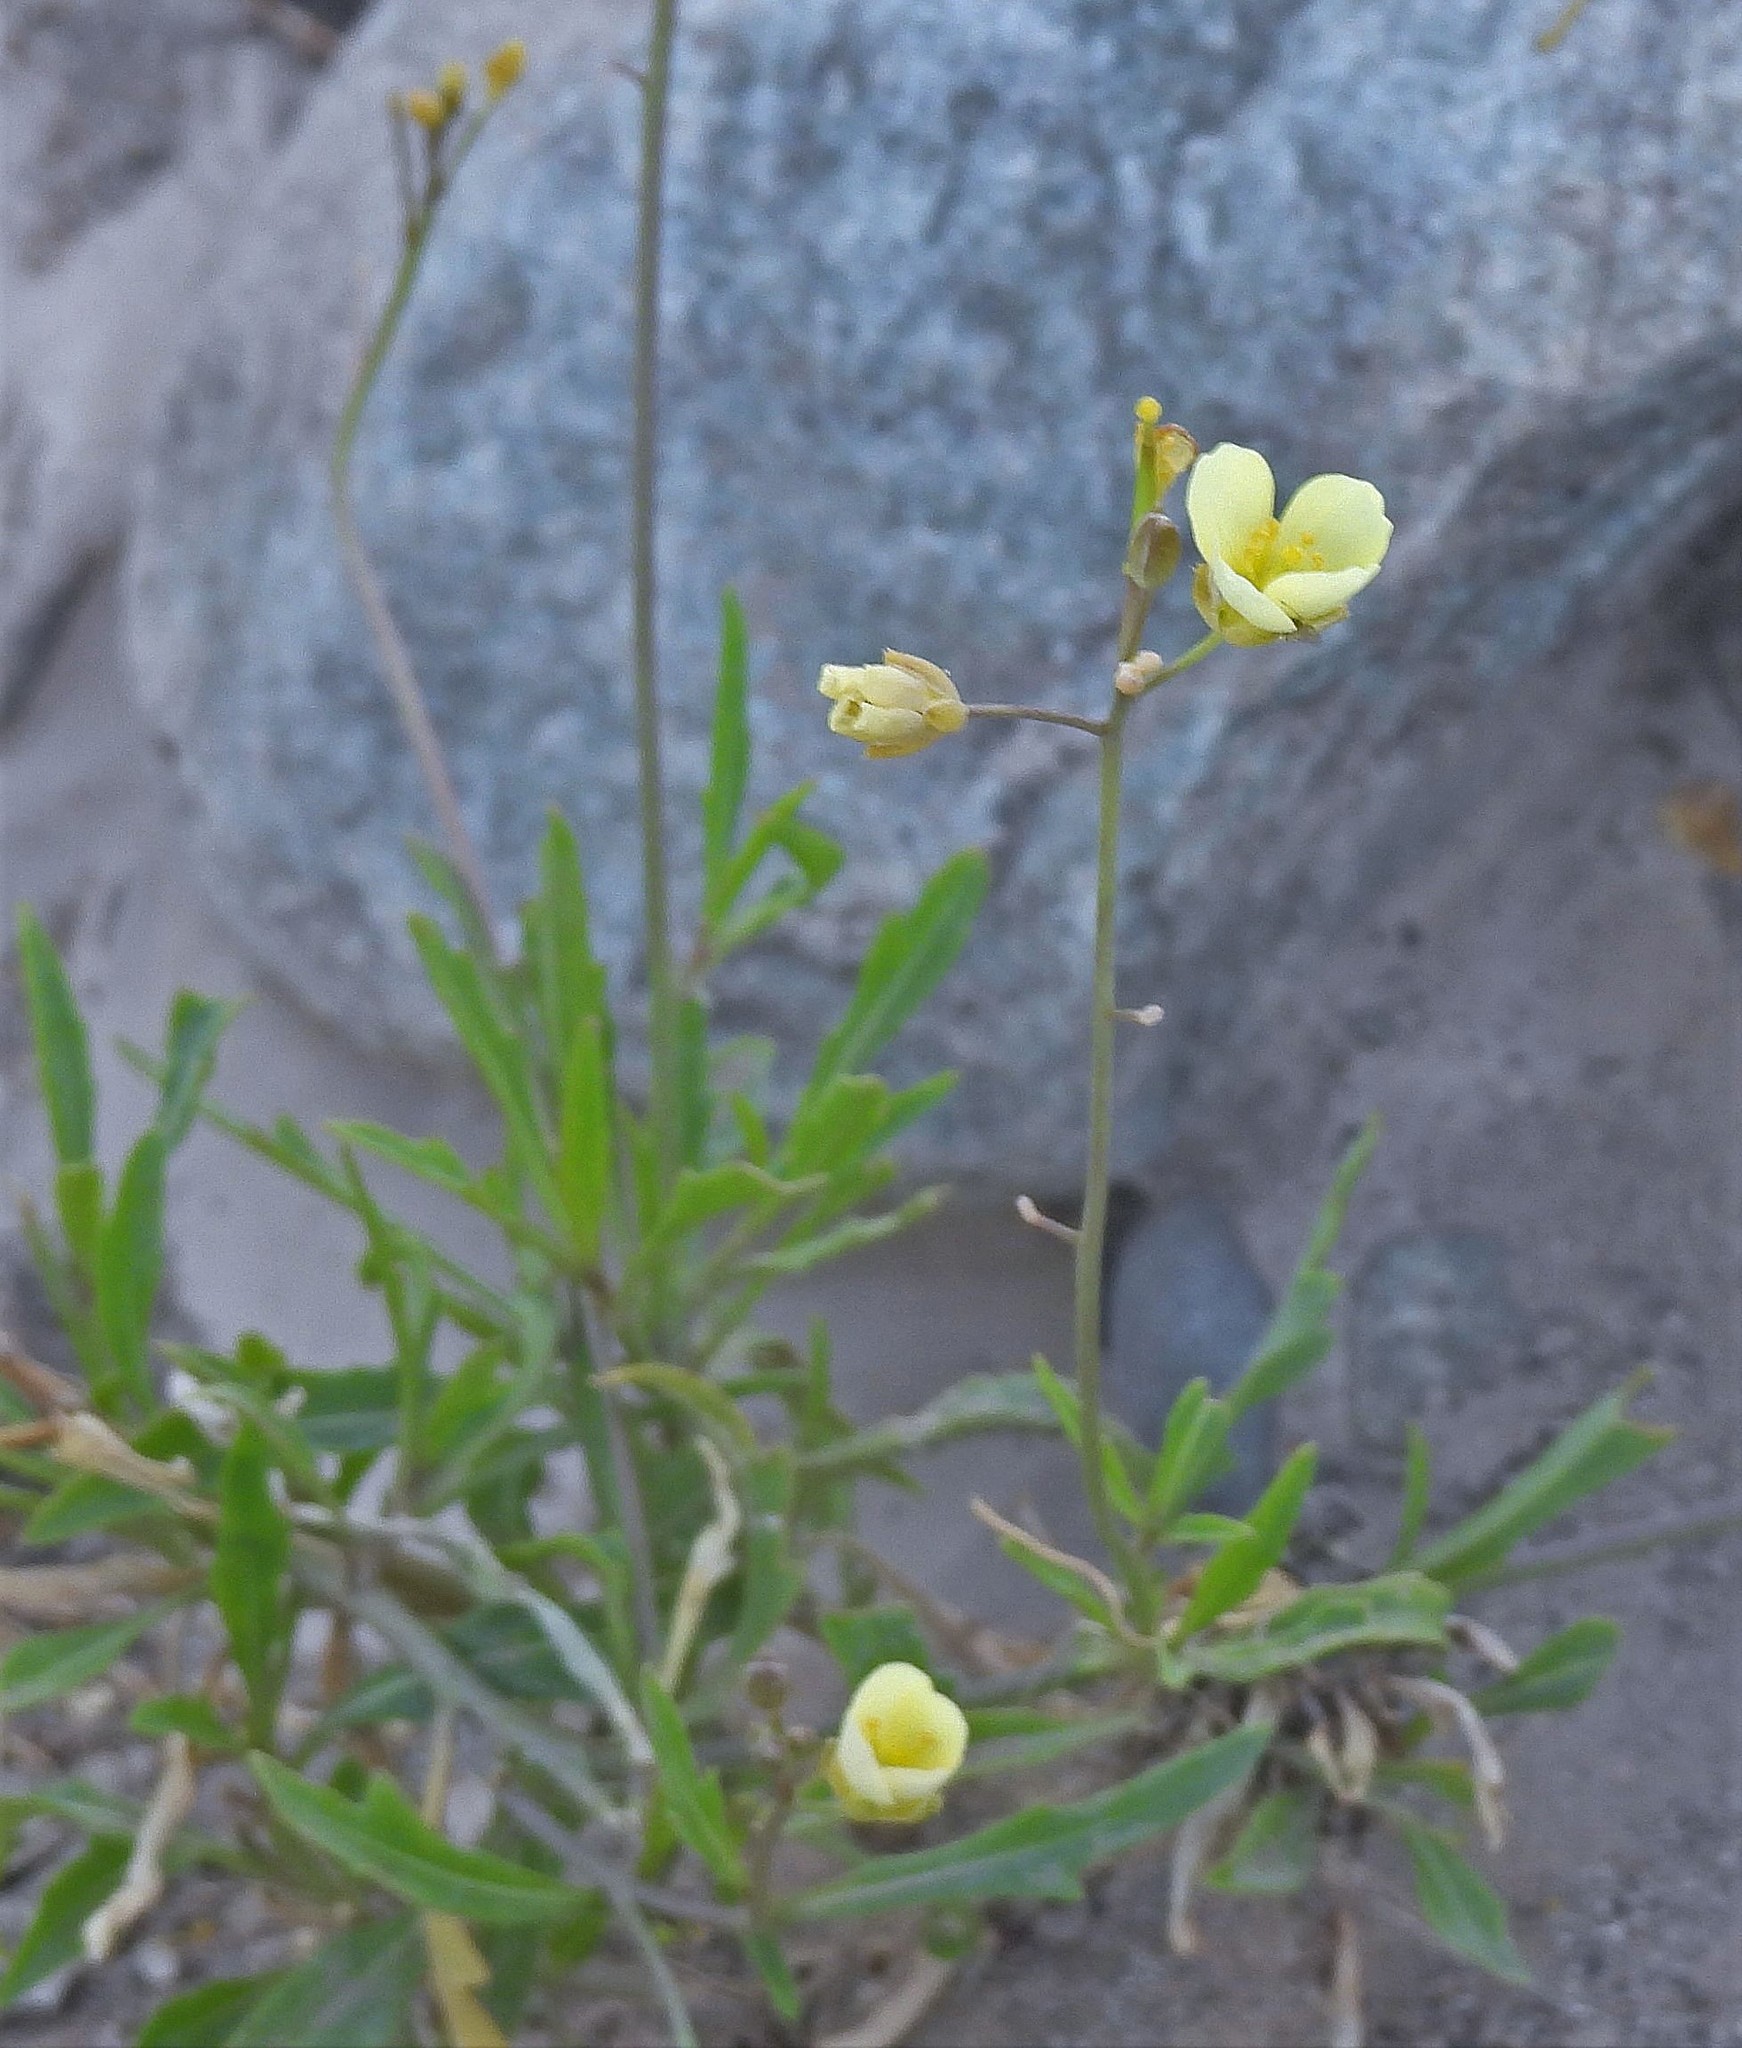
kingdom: Plantae
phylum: Tracheophyta
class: Magnoliopsida
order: Brassicales
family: Brassicaceae
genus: Diplotaxis
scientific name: Diplotaxis tenuifolia
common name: Perennial wall-rocket
